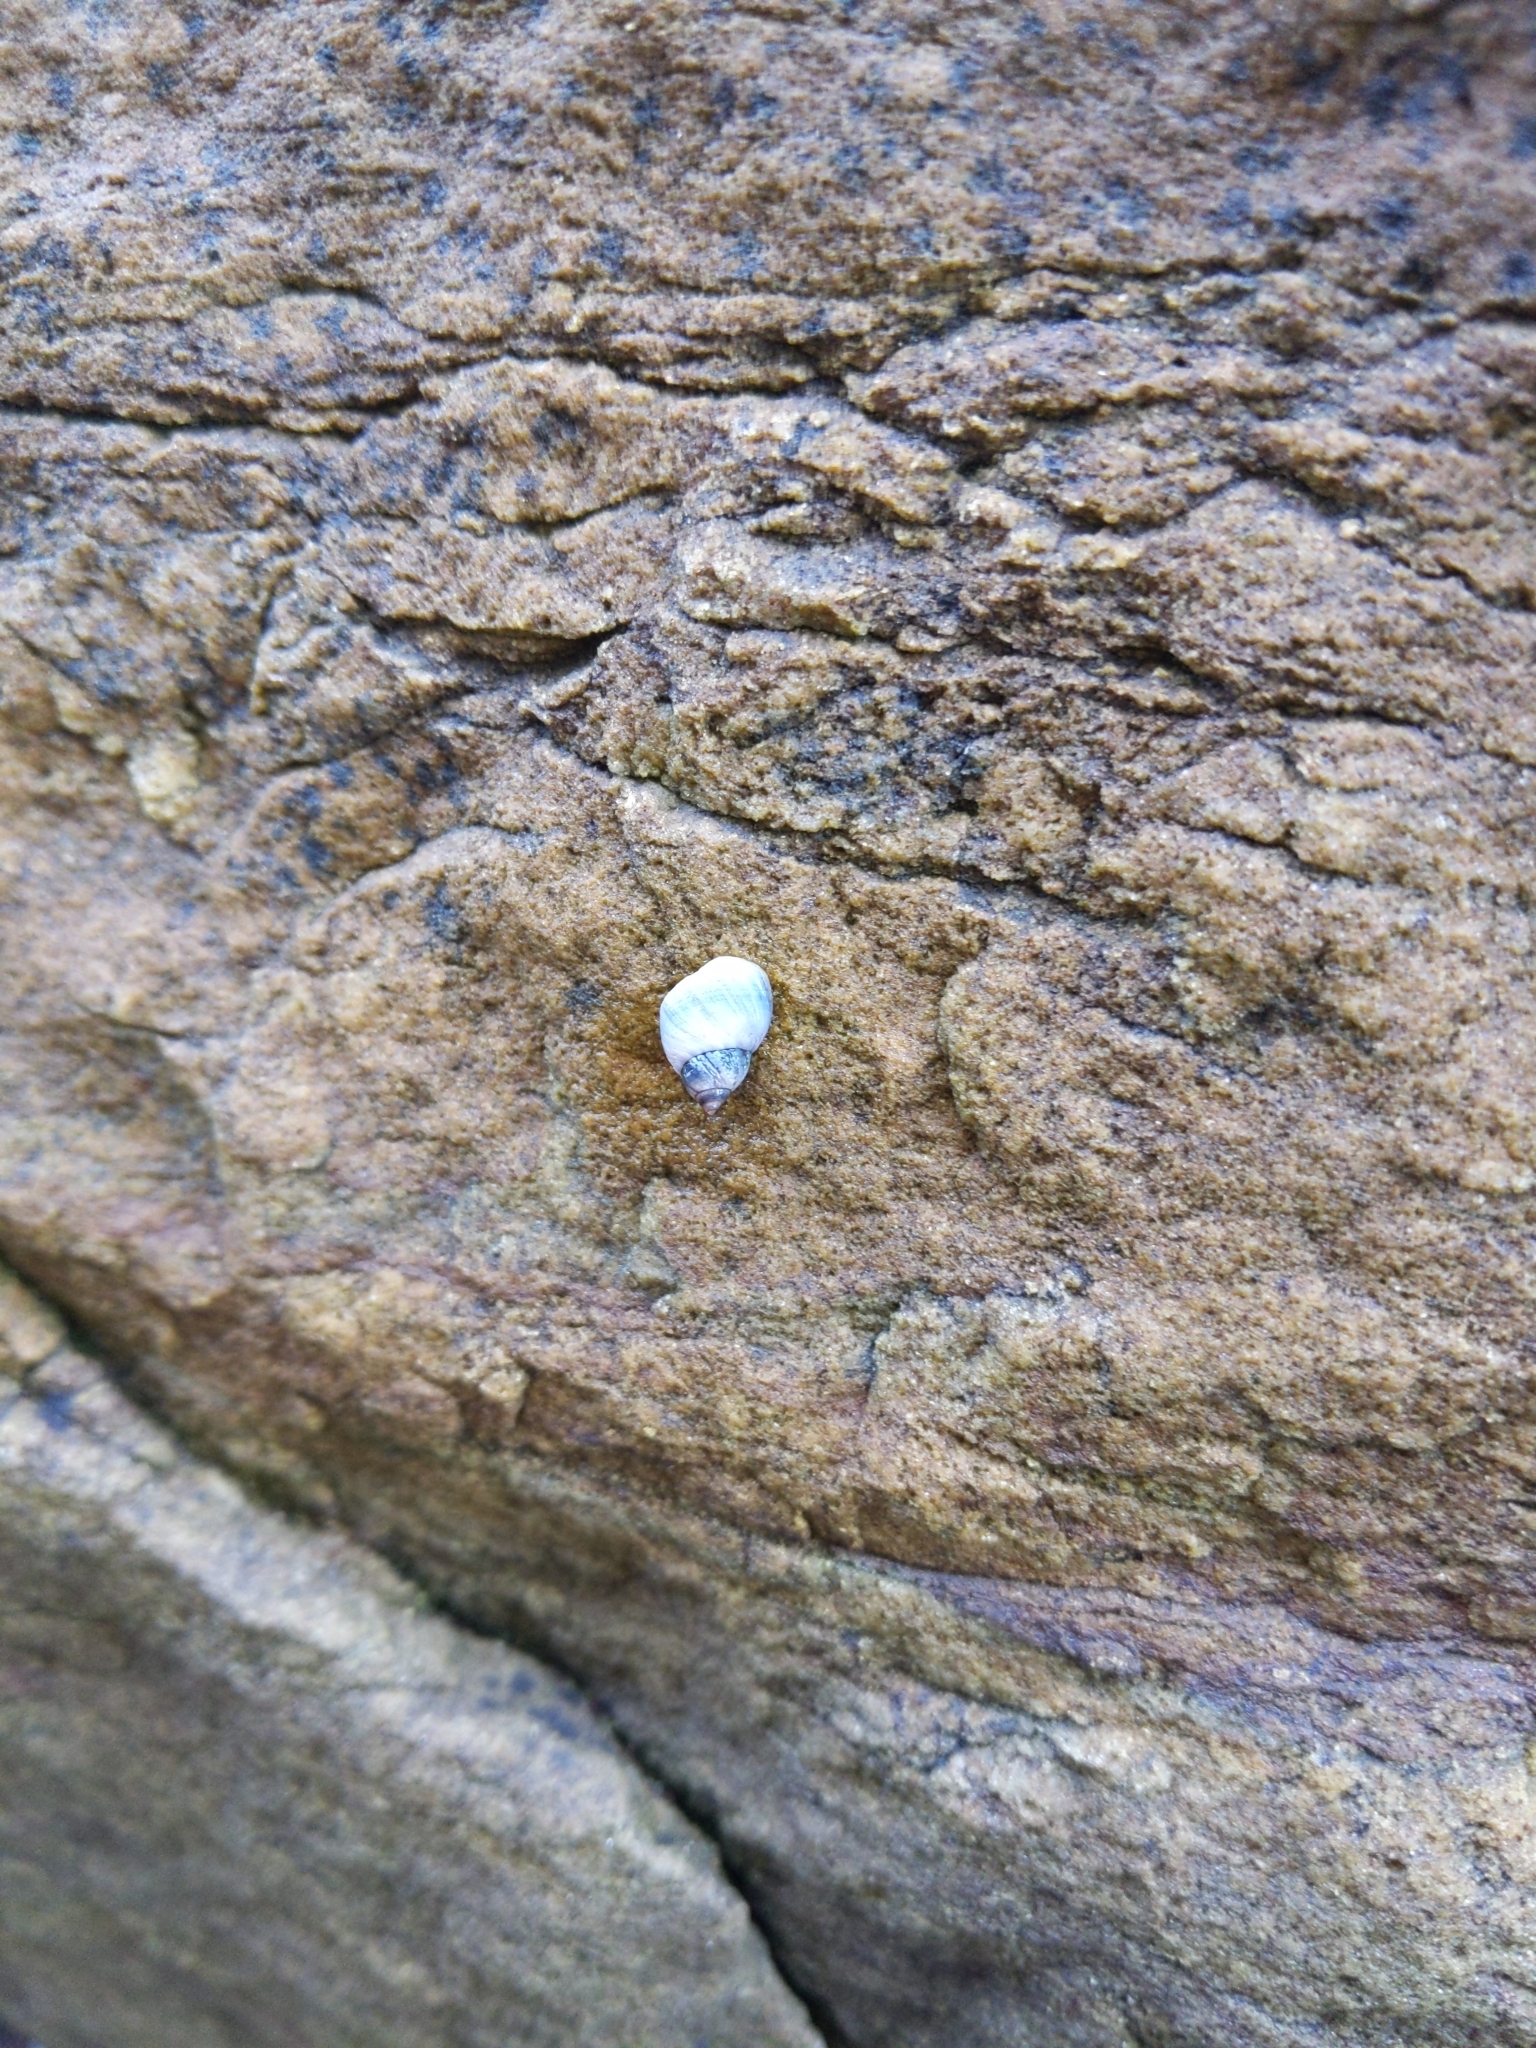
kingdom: Animalia
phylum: Mollusca
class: Gastropoda
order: Littorinimorpha
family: Littorinidae
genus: Austrolittorina
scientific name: Austrolittorina unifasciata
